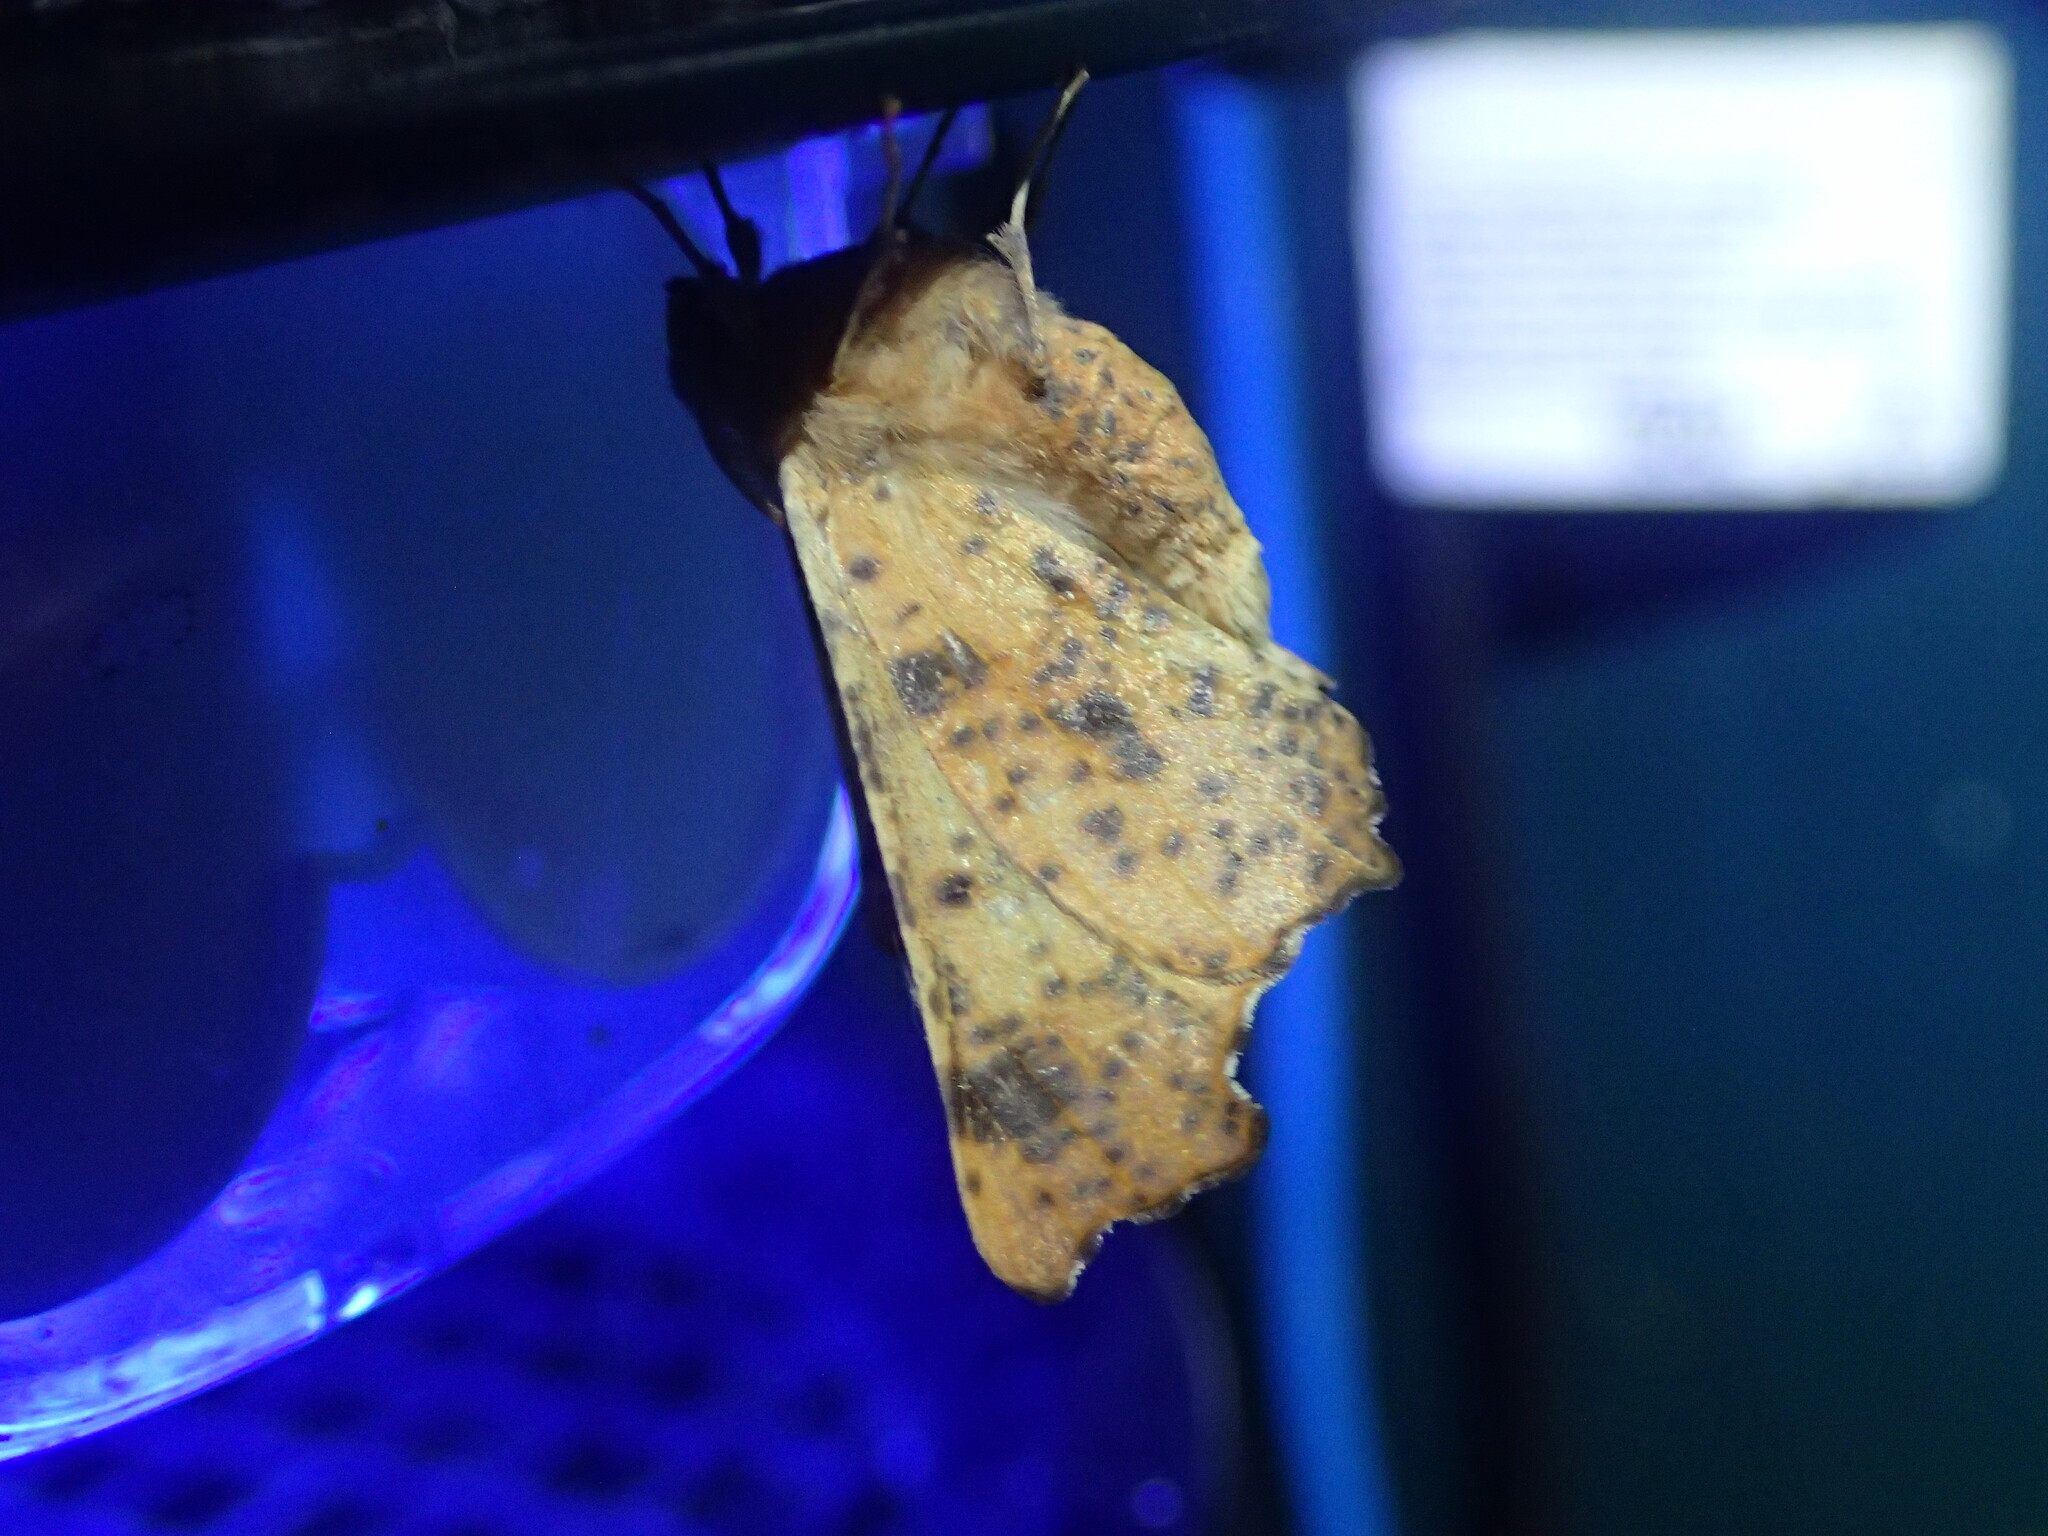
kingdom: Animalia
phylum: Arthropoda
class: Insecta
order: Lepidoptera
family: Geometridae
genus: Ennomos
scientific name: Ennomos magnaria
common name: Maple spanworm
